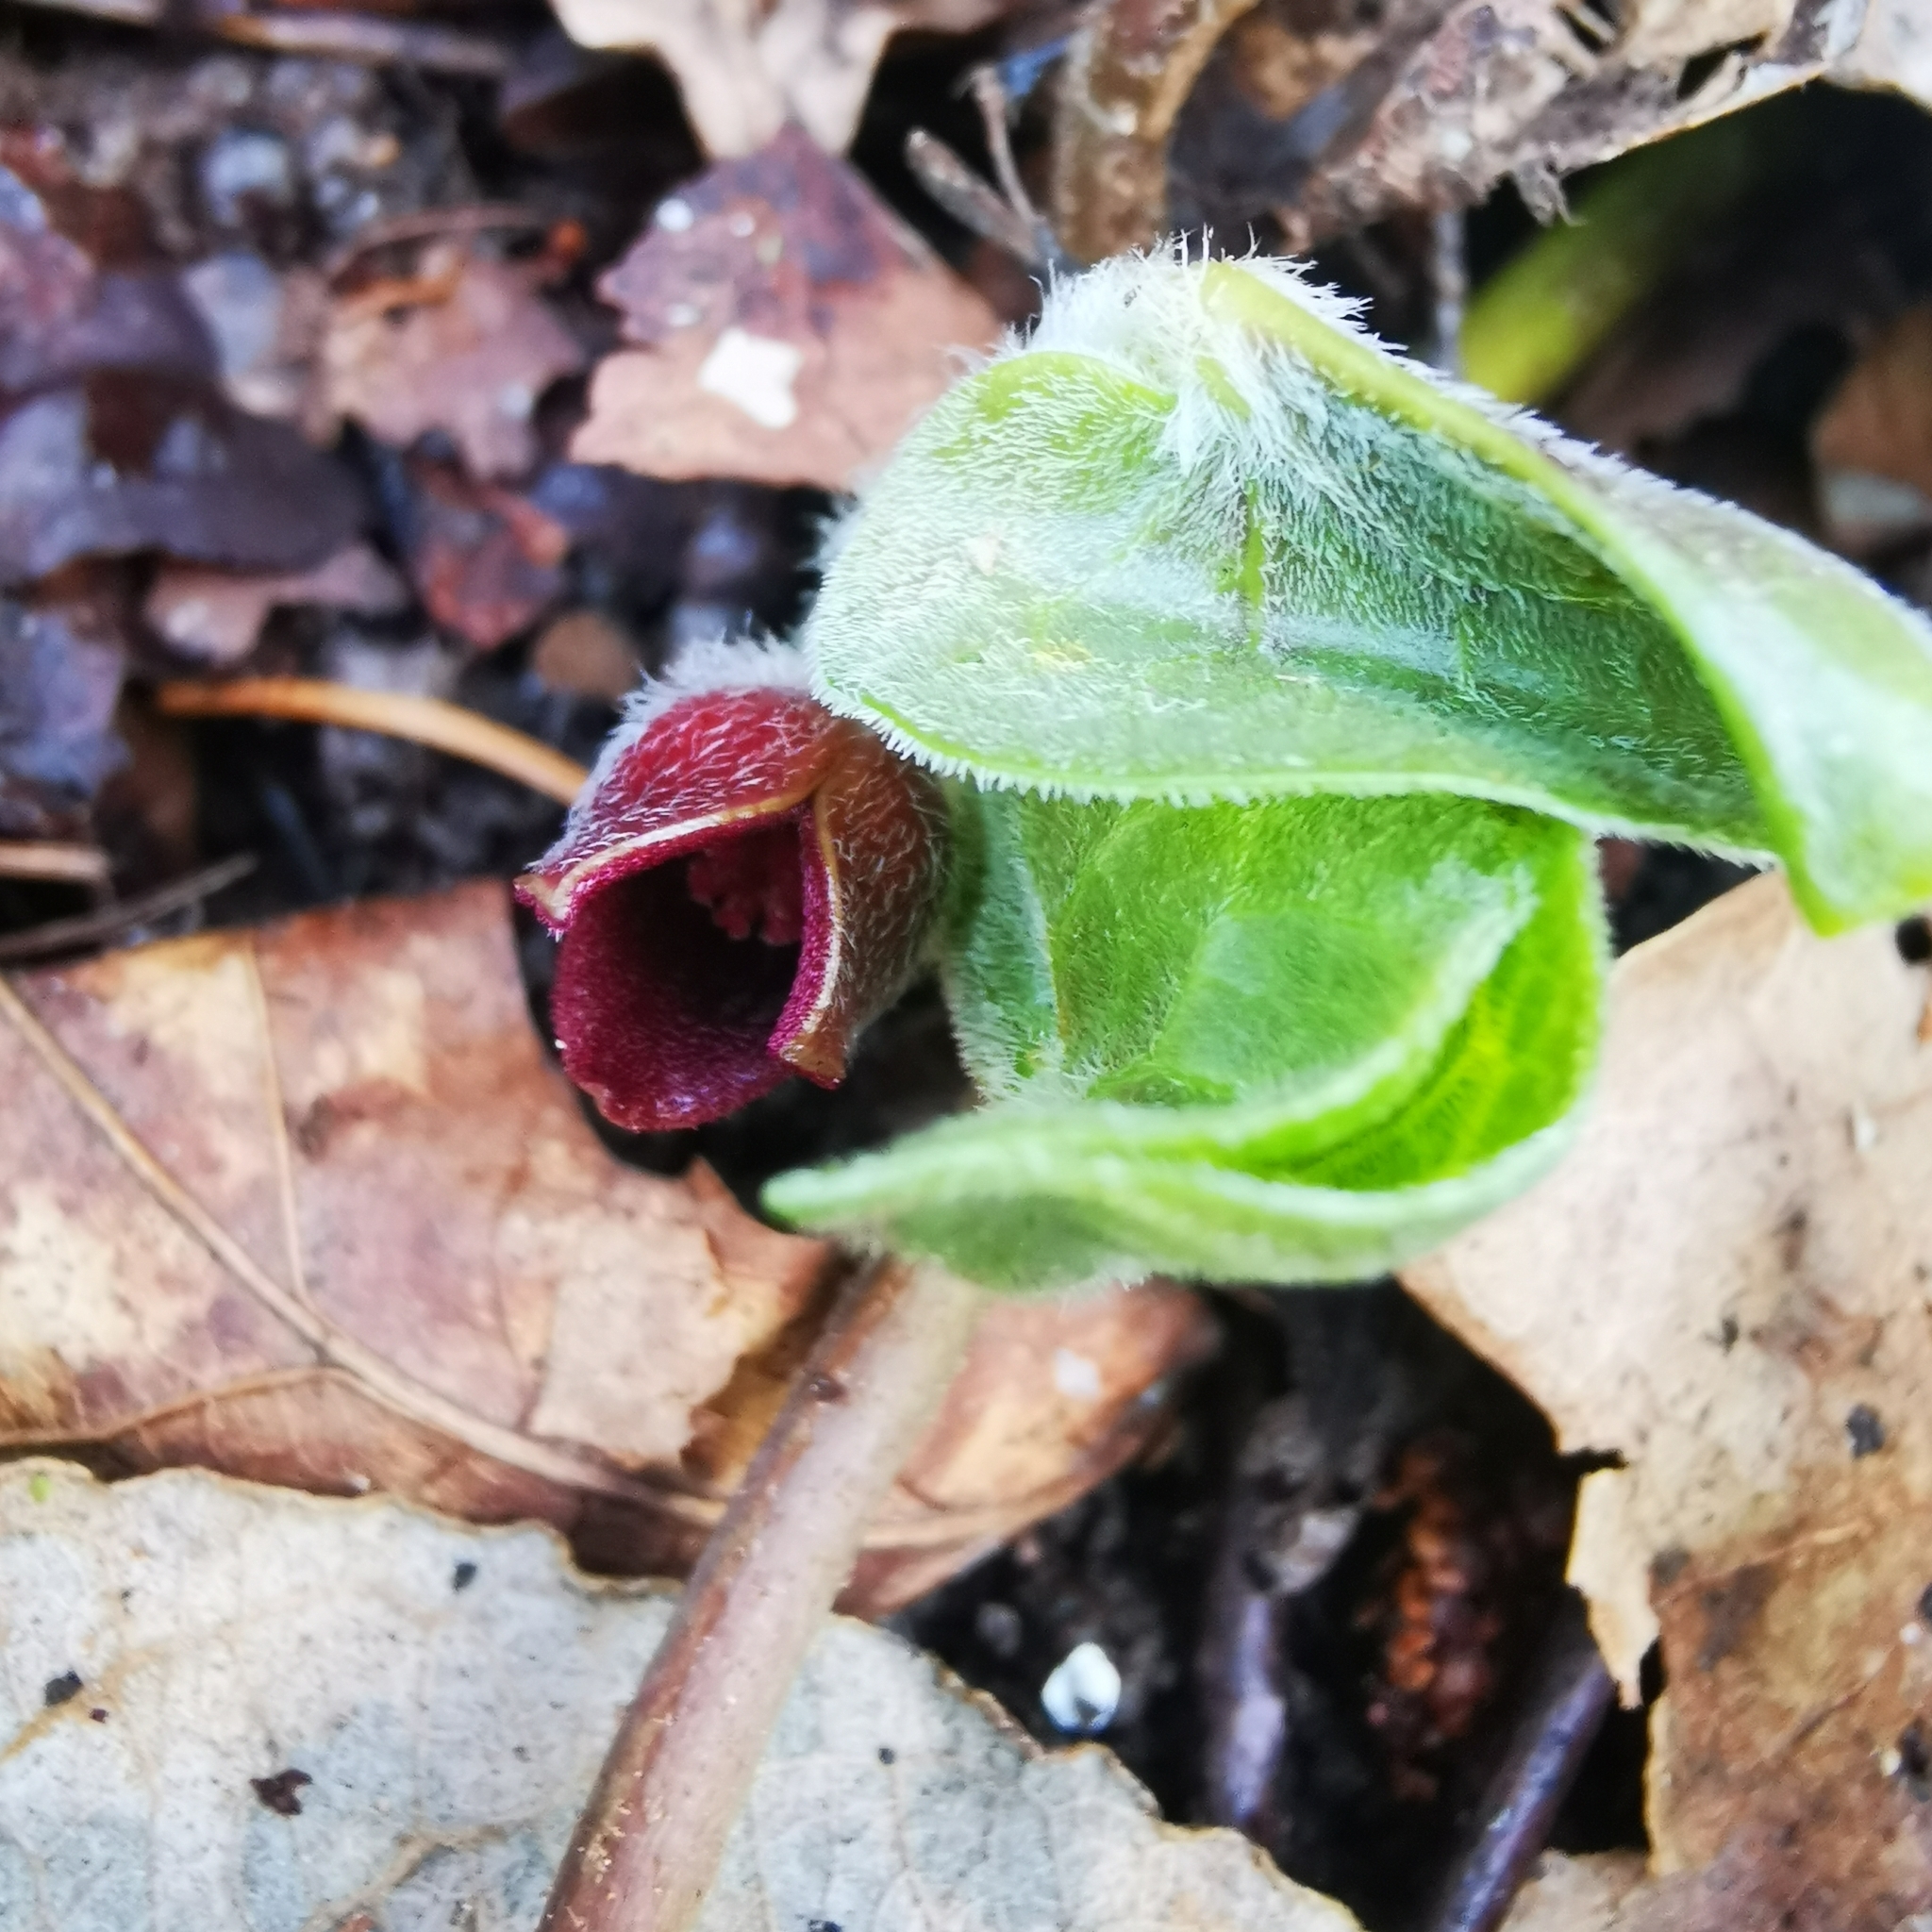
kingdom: Plantae
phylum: Tracheophyta
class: Magnoliopsida
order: Piperales
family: Aristolochiaceae
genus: Asarum
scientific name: Asarum europaeum
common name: Asarabacca
